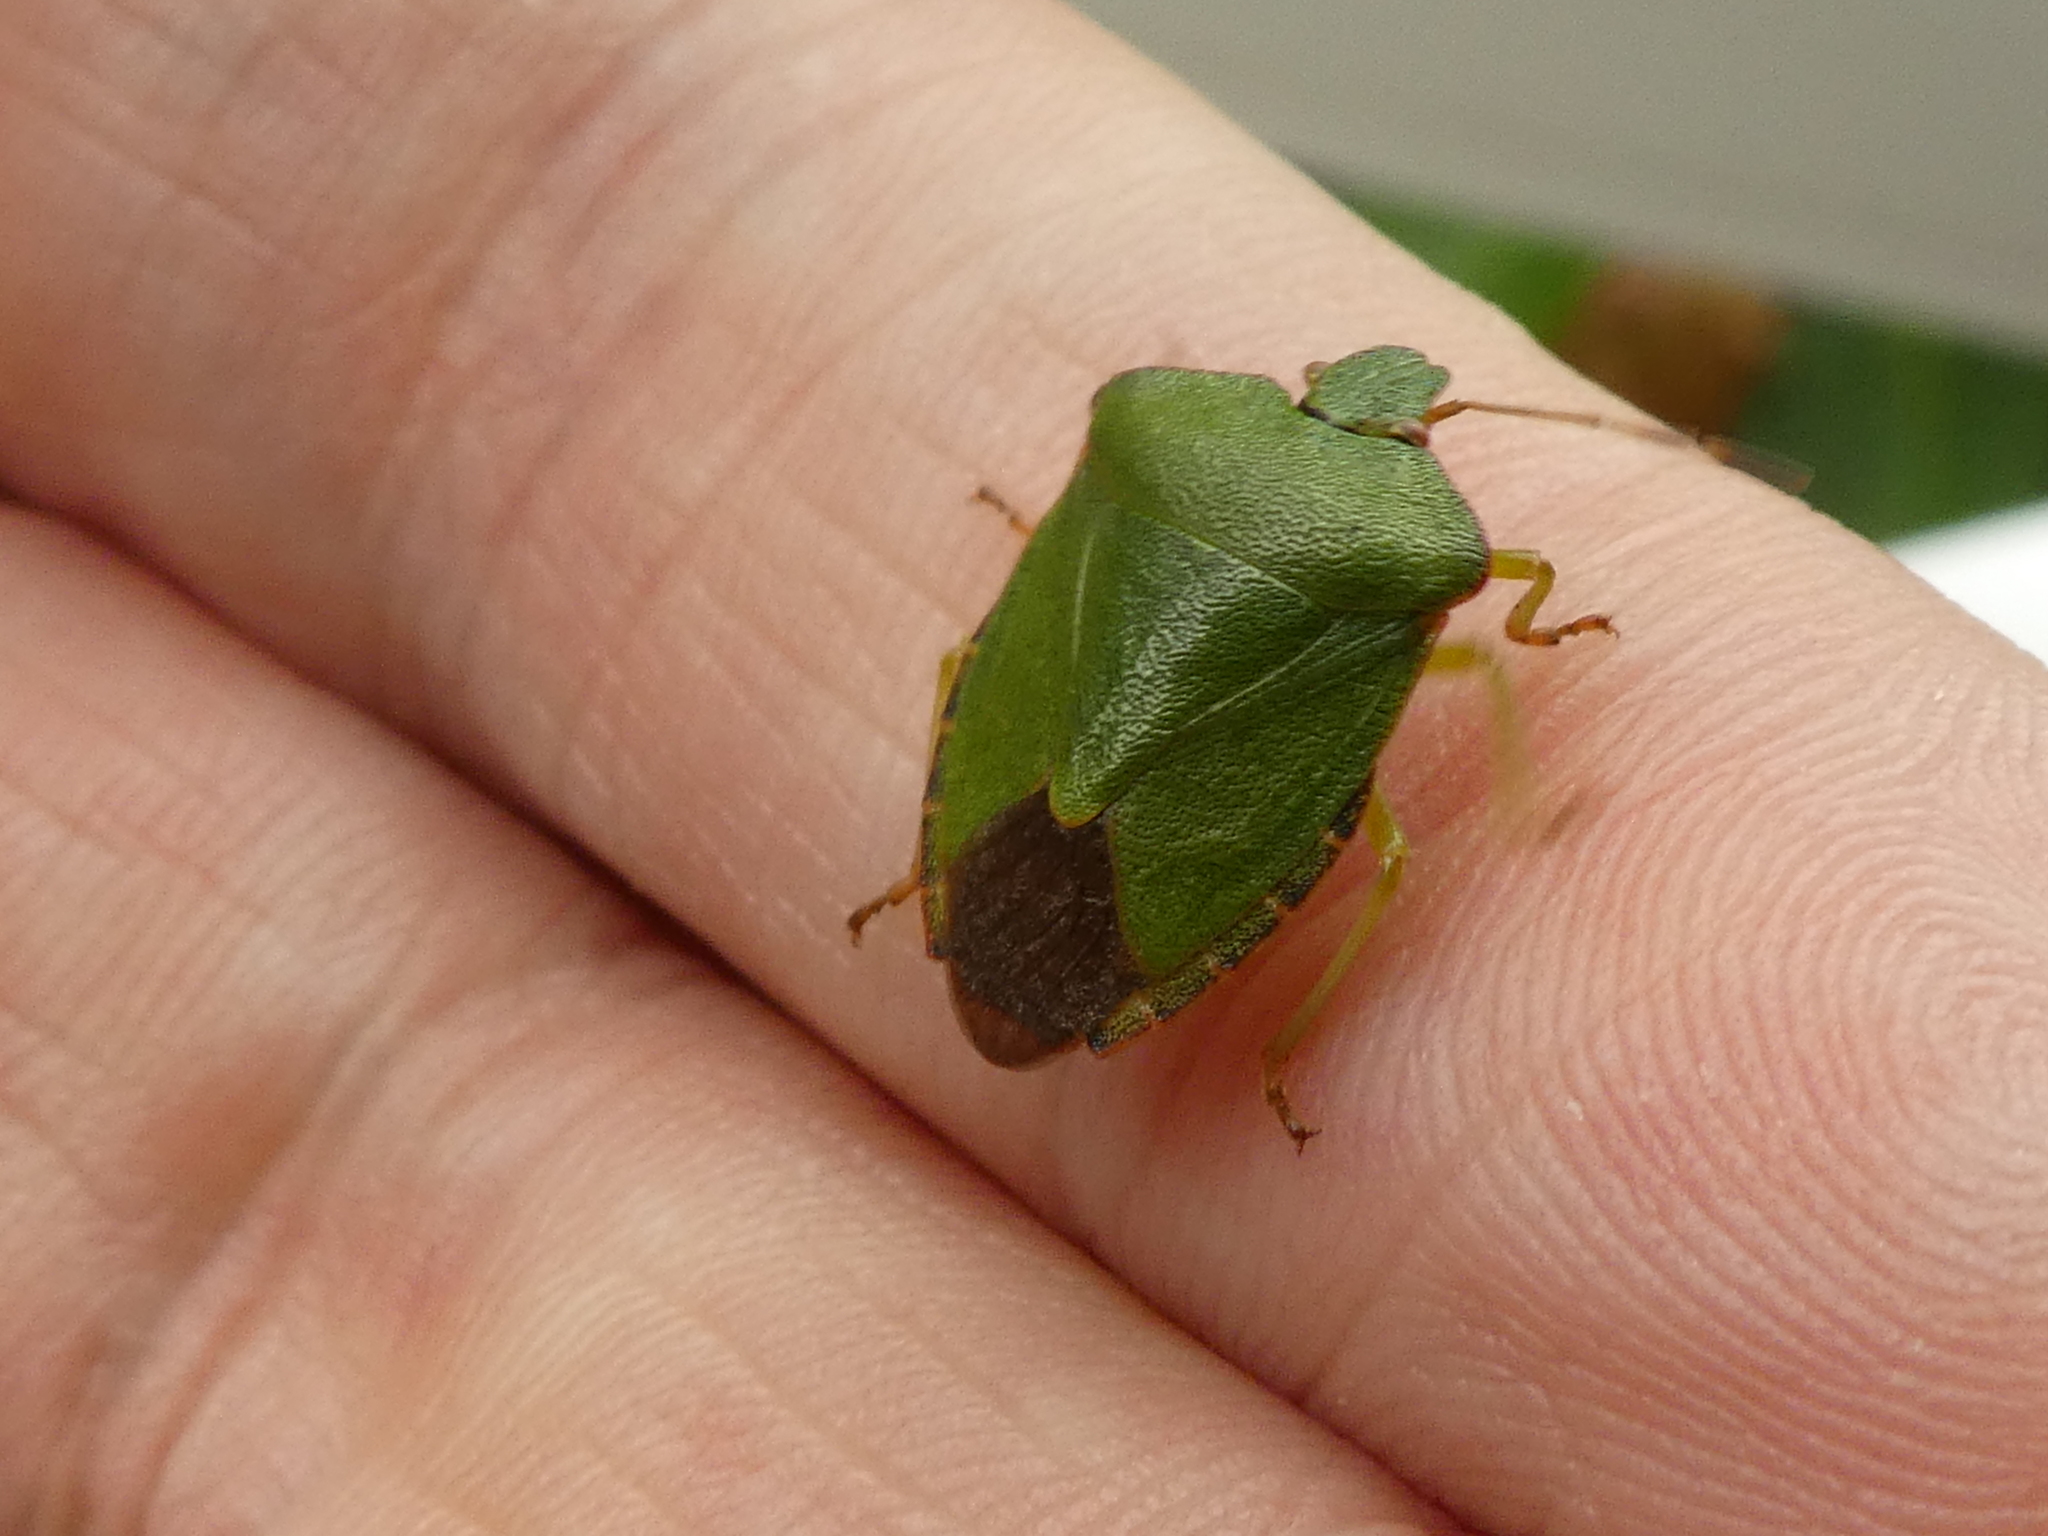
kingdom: Animalia
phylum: Arthropoda
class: Insecta
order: Hemiptera
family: Pentatomidae
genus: Palomena
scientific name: Palomena prasina
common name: Green shieldbug
